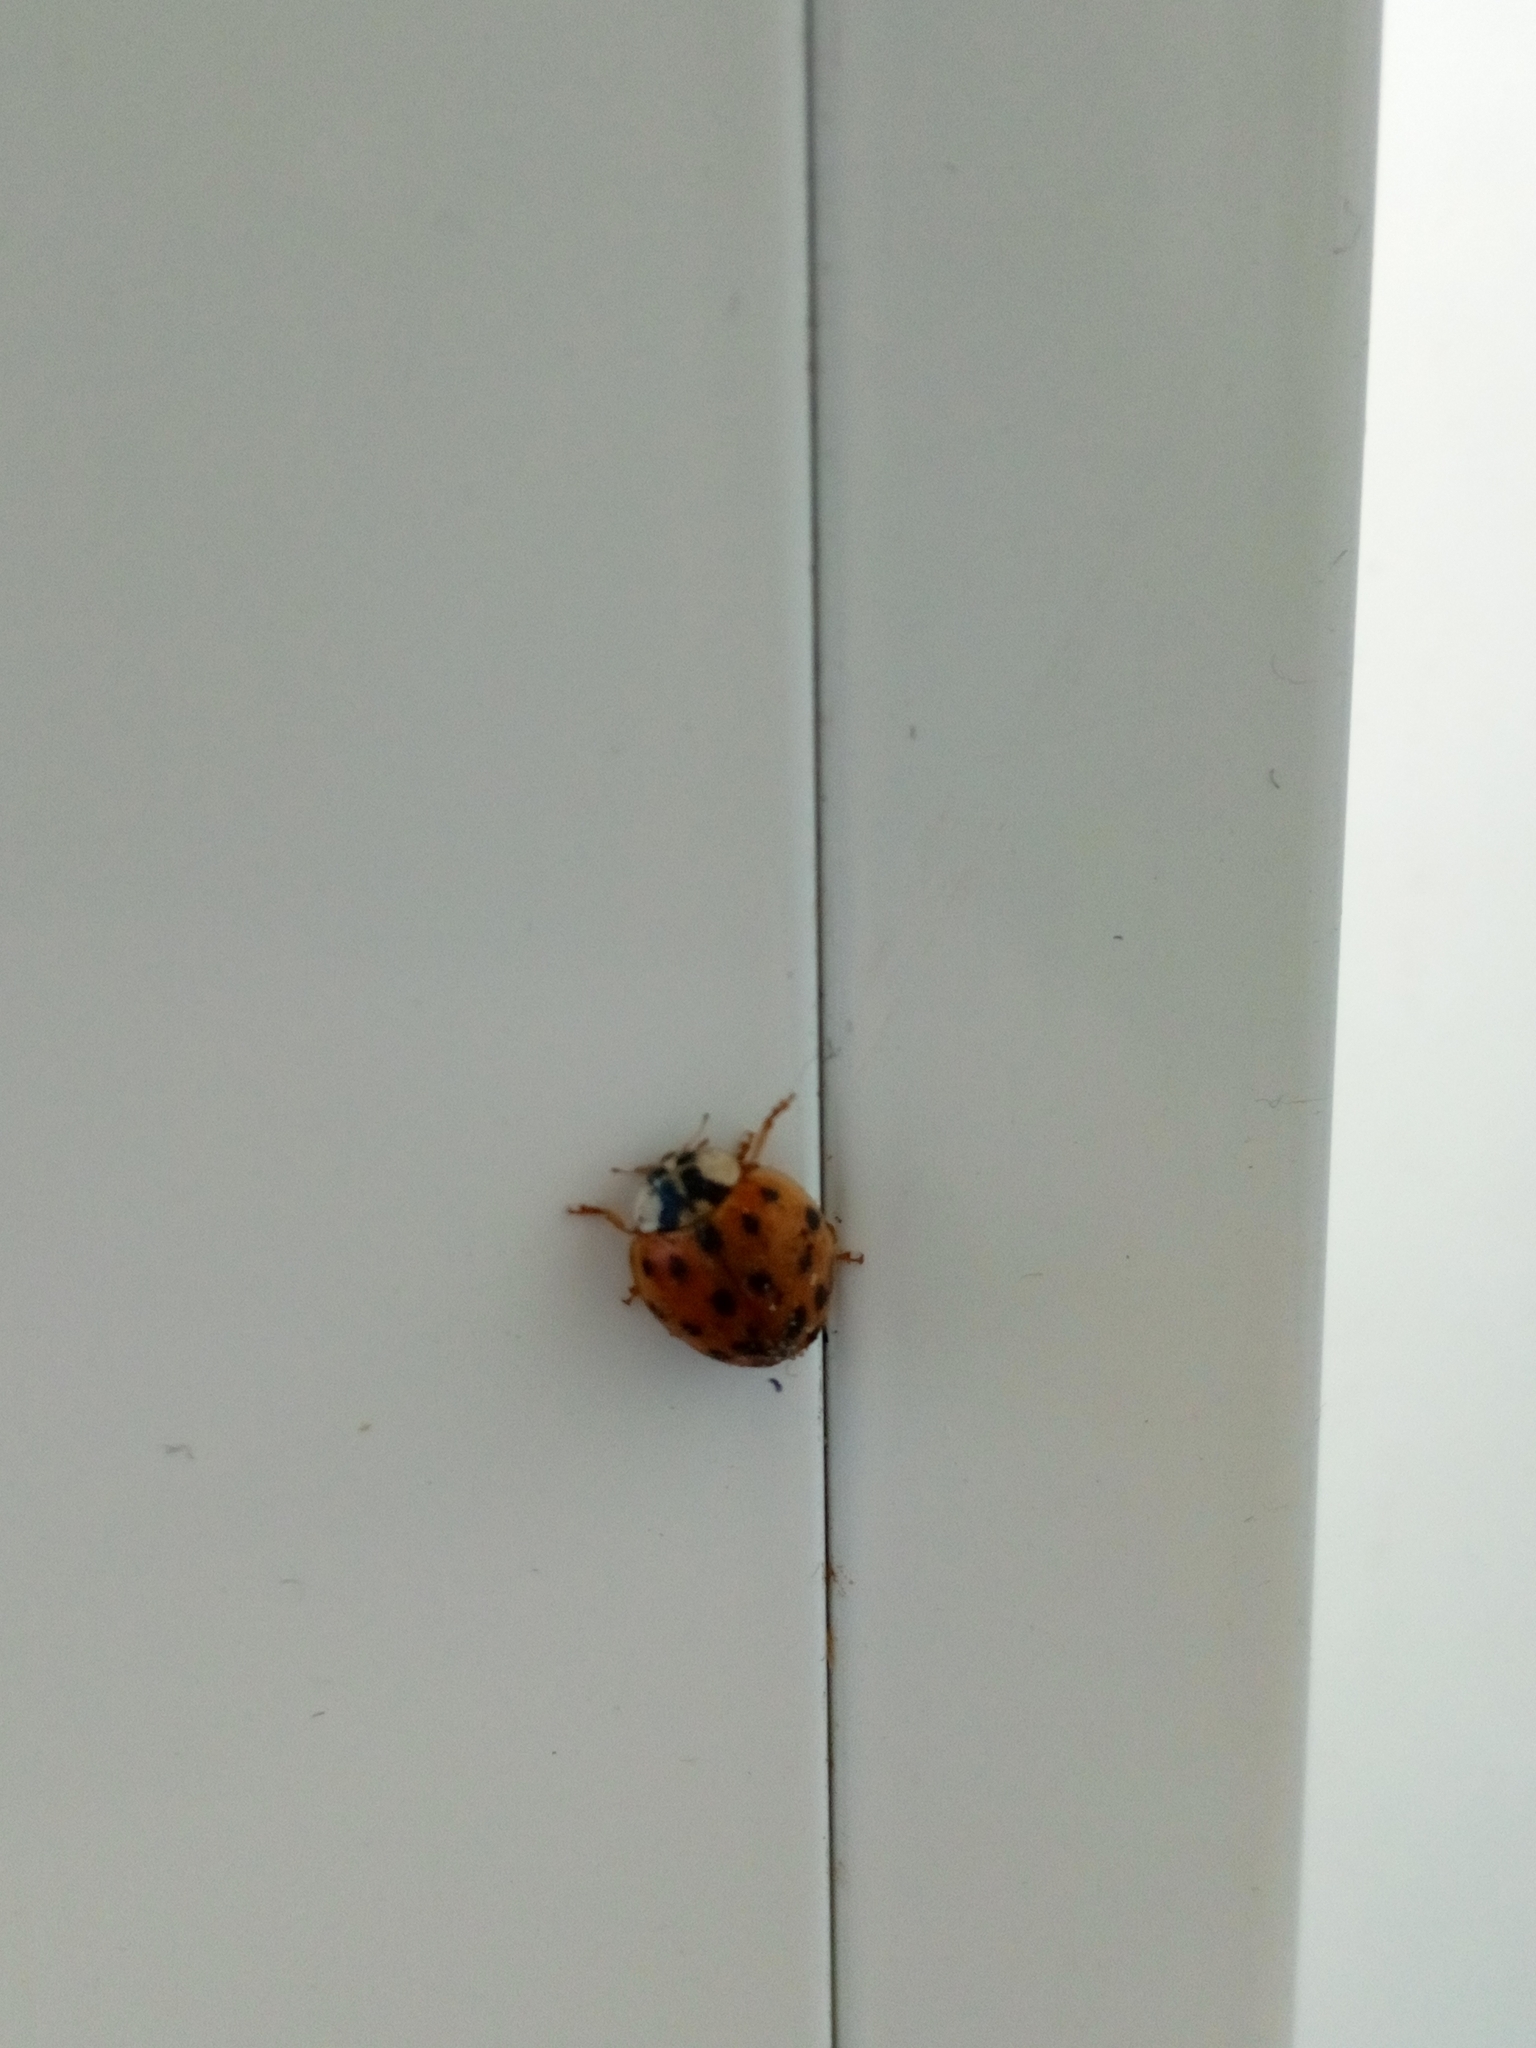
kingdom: Animalia
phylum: Arthropoda
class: Insecta
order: Coleoptera
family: Coccinellidae
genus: Harmonia
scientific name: Harmonia axyridis
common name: Harlequin ladybird
